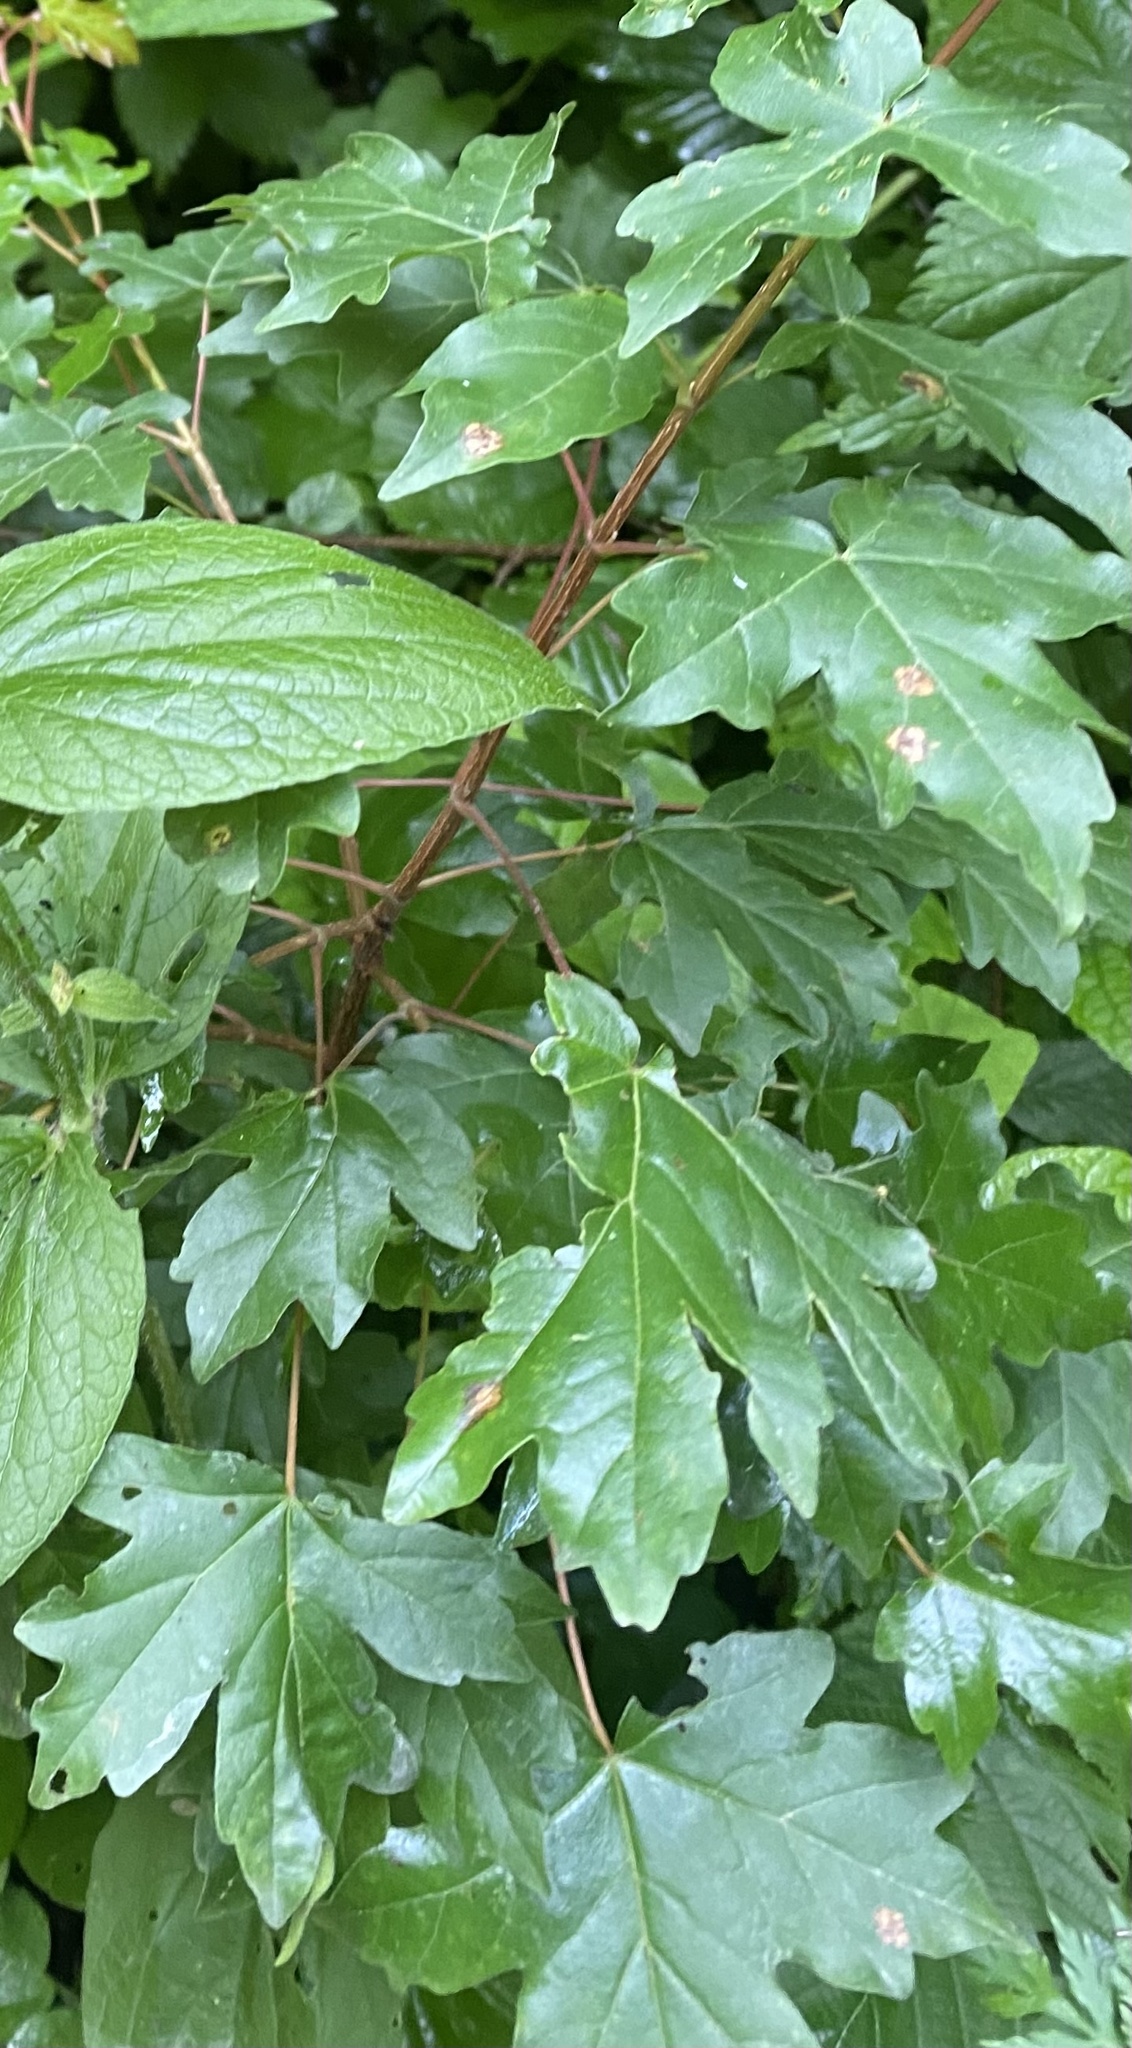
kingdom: Plantae
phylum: Tracheophyta
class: Magnoliopsida
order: Sapindales
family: Sapindaceae
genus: Acer
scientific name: Acer campestre
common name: Field maple
